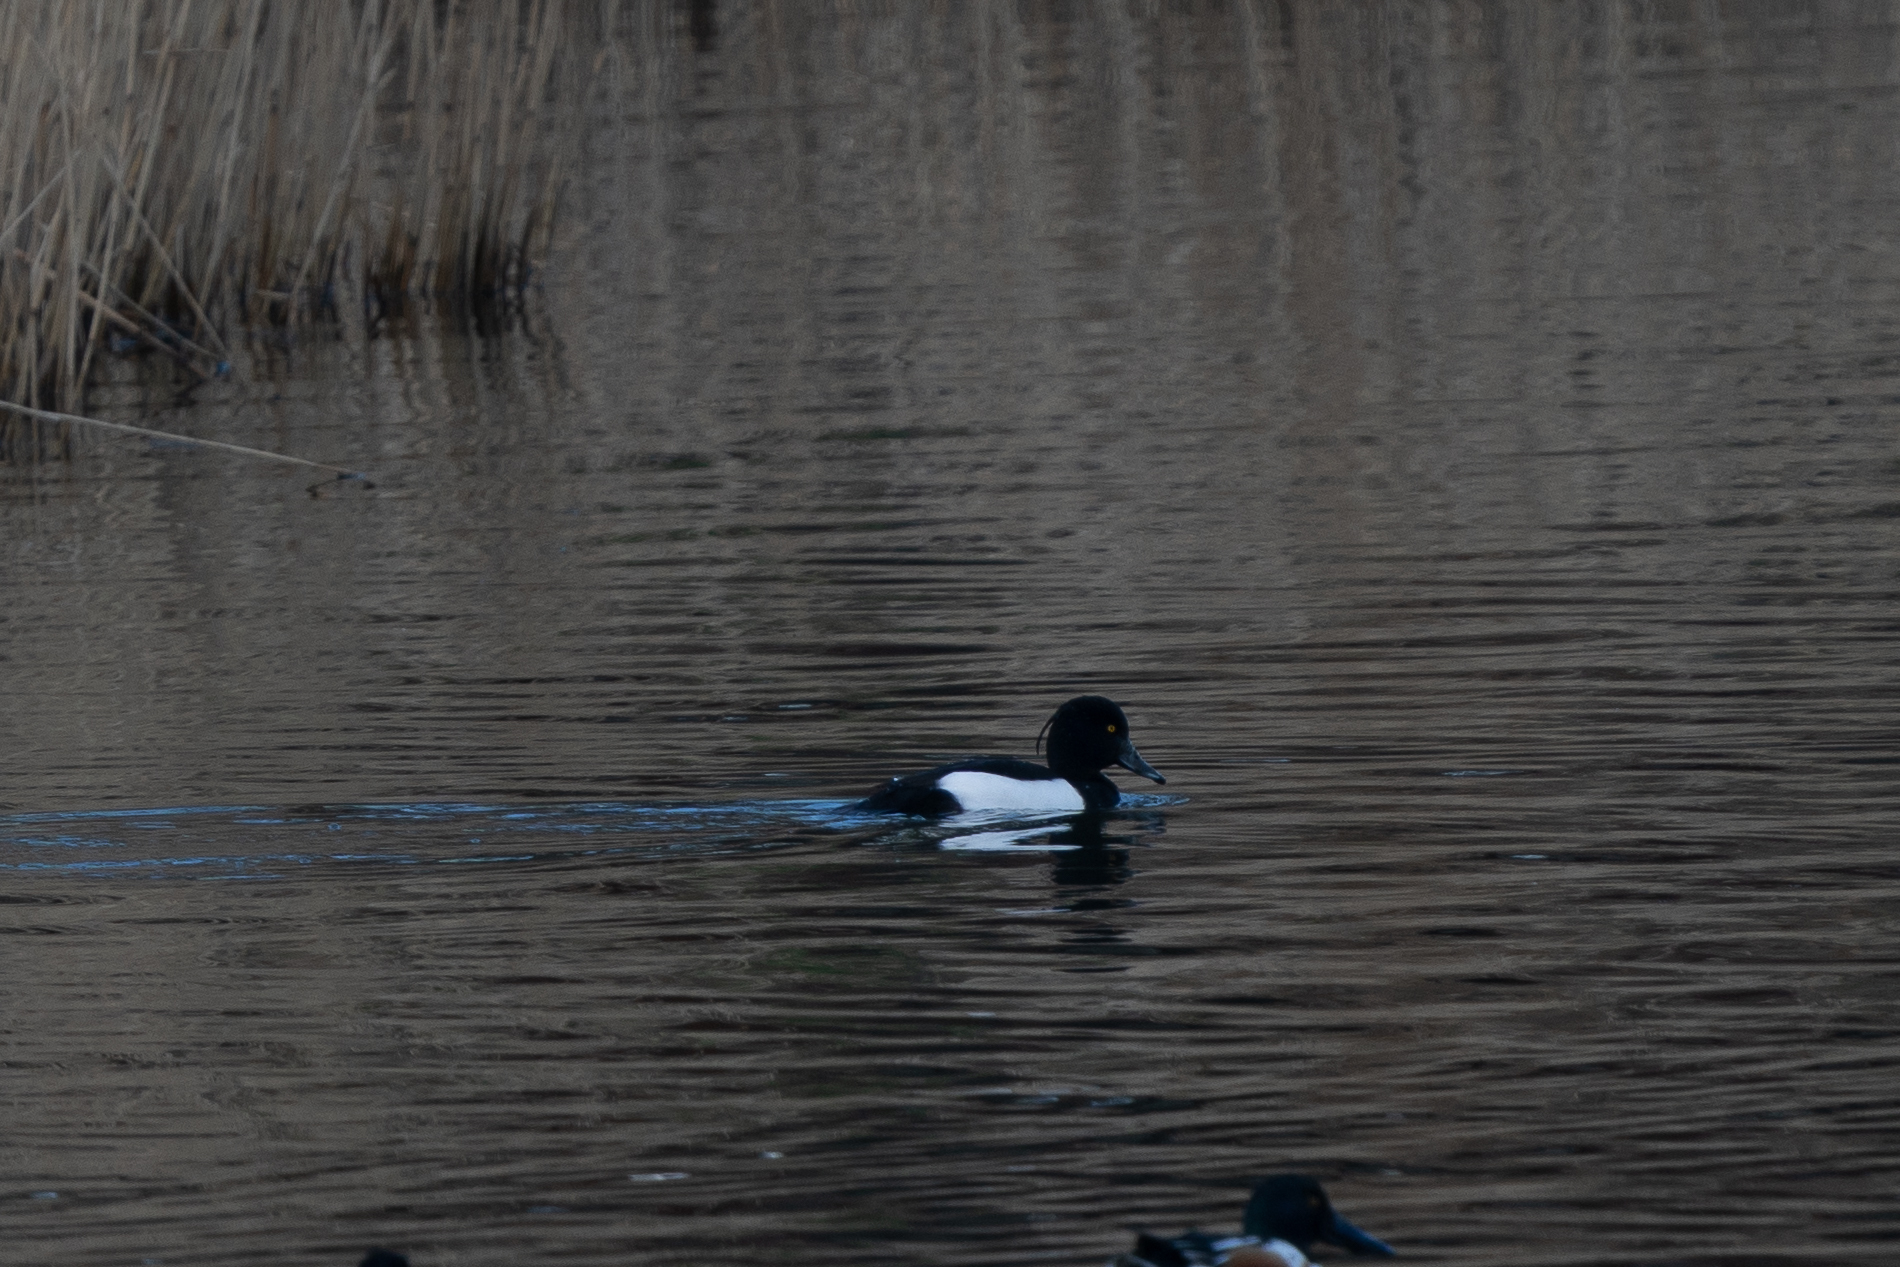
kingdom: Animalia
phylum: Chordata
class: Aves
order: Anseriformes
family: Anatidae
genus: Aythya
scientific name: Aythya fuligula
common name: Tufted duck
